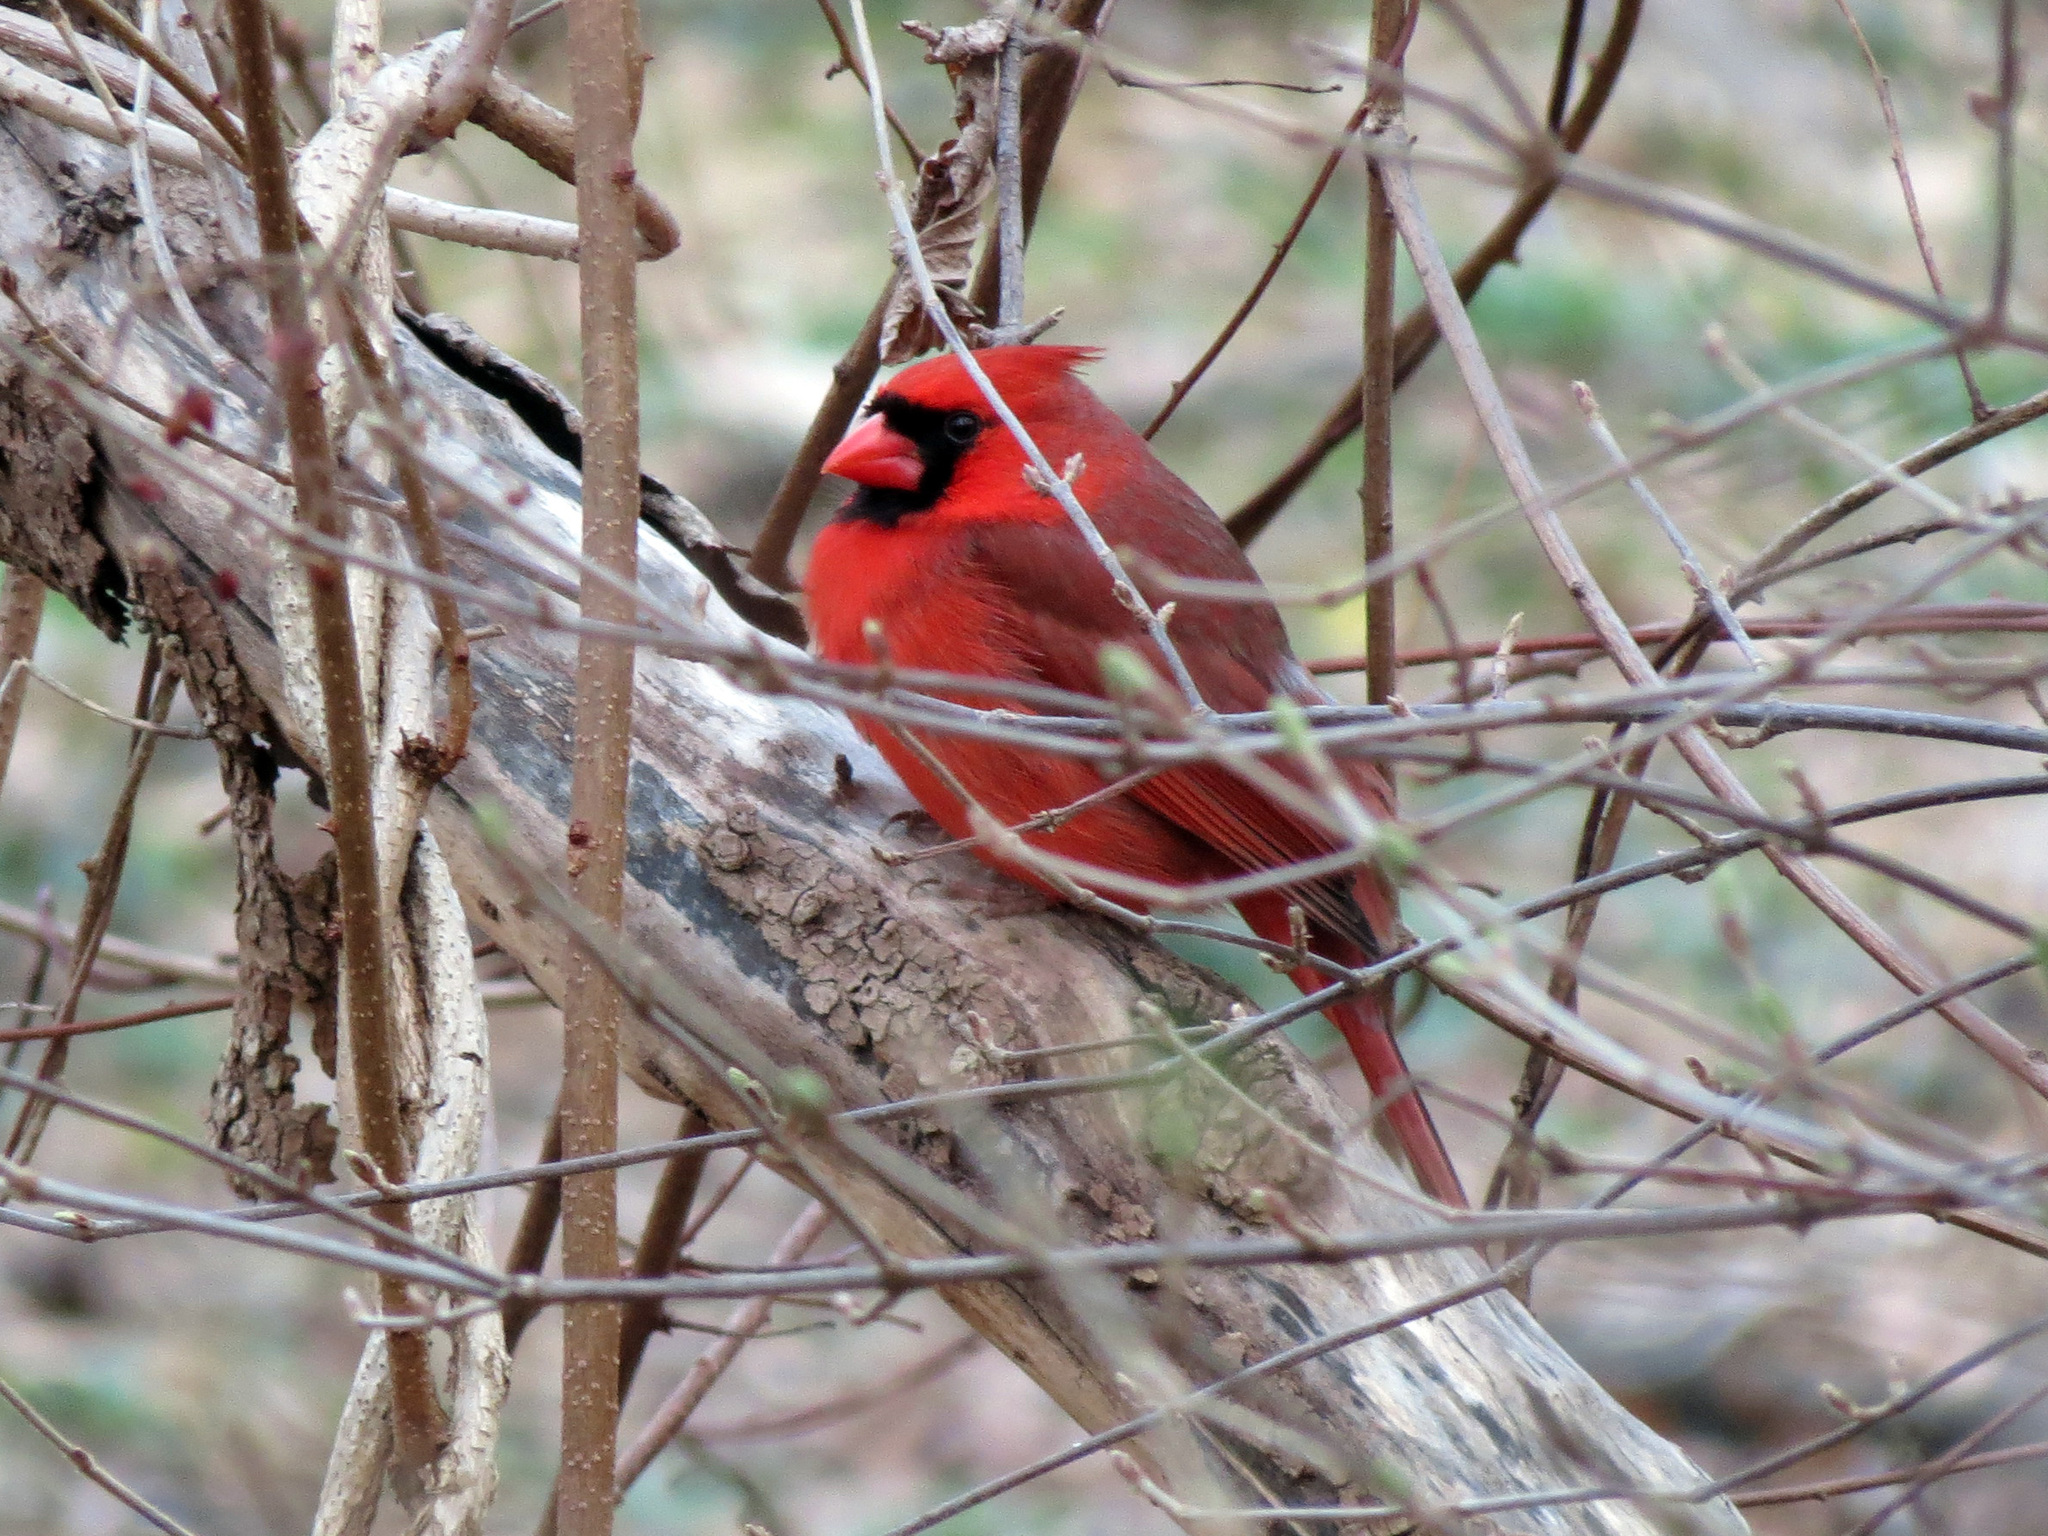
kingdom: Animalia
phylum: Chordata
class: Aves
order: Passeriformes
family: Cardinalidae
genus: Cardinalis
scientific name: Cardinalis cardinalis
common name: Northern cardinal
